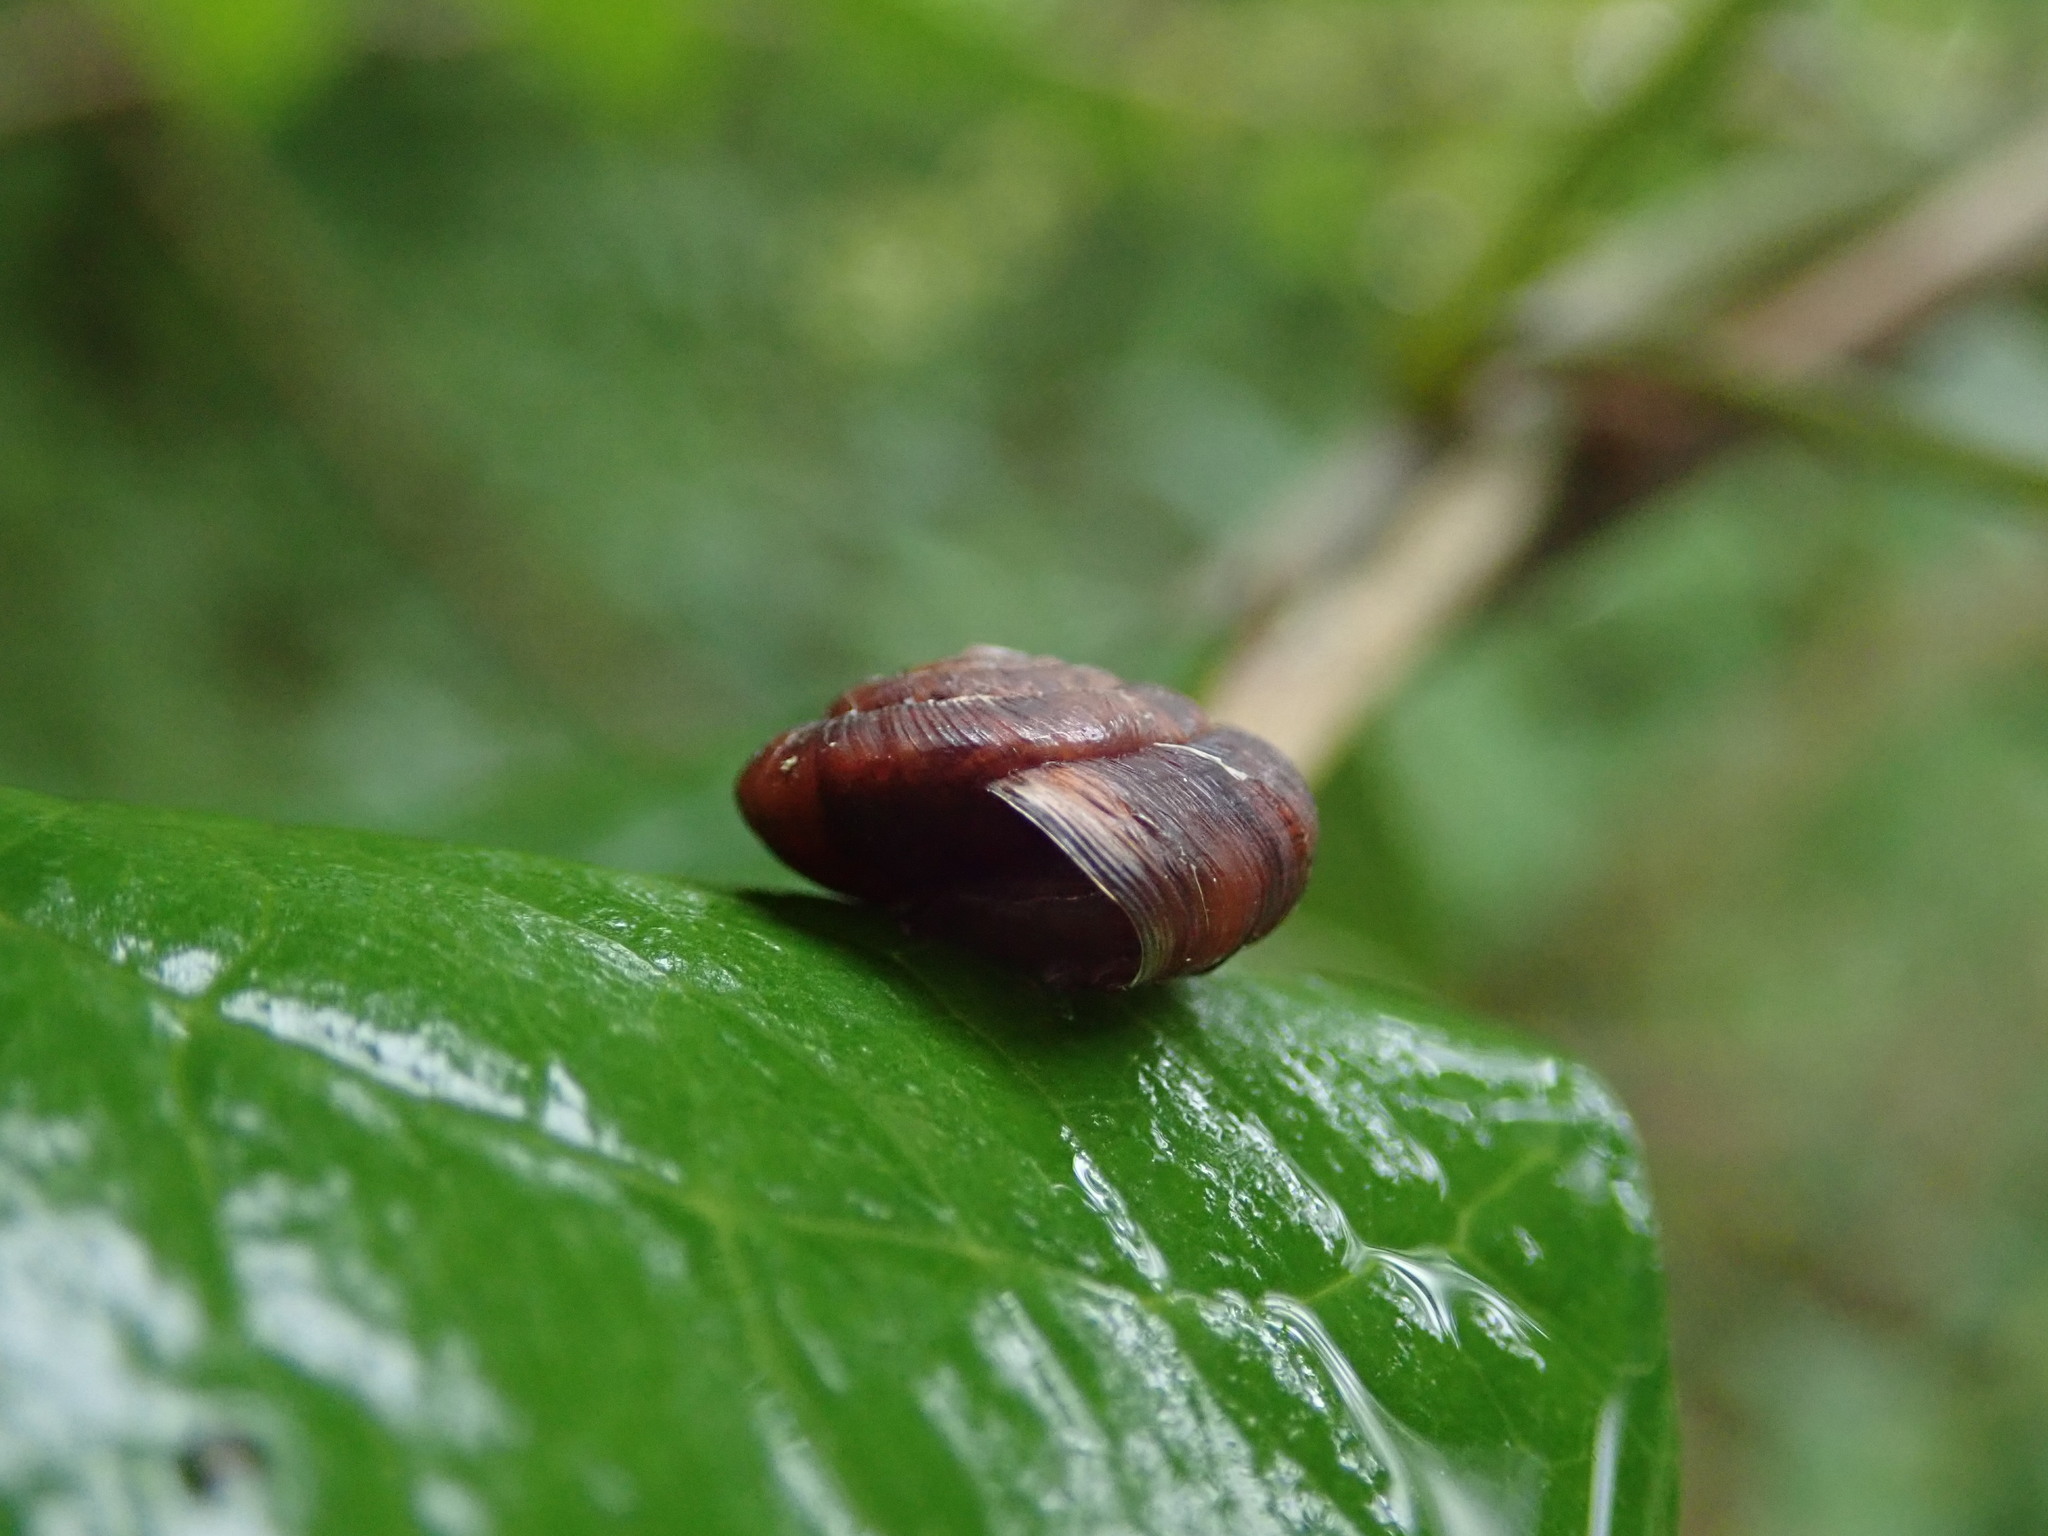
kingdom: Animalia
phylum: Mollusca
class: Gastropoda
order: Stylommatophora
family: Hygromiidae
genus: Trochulus
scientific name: Trochulus striolatus
